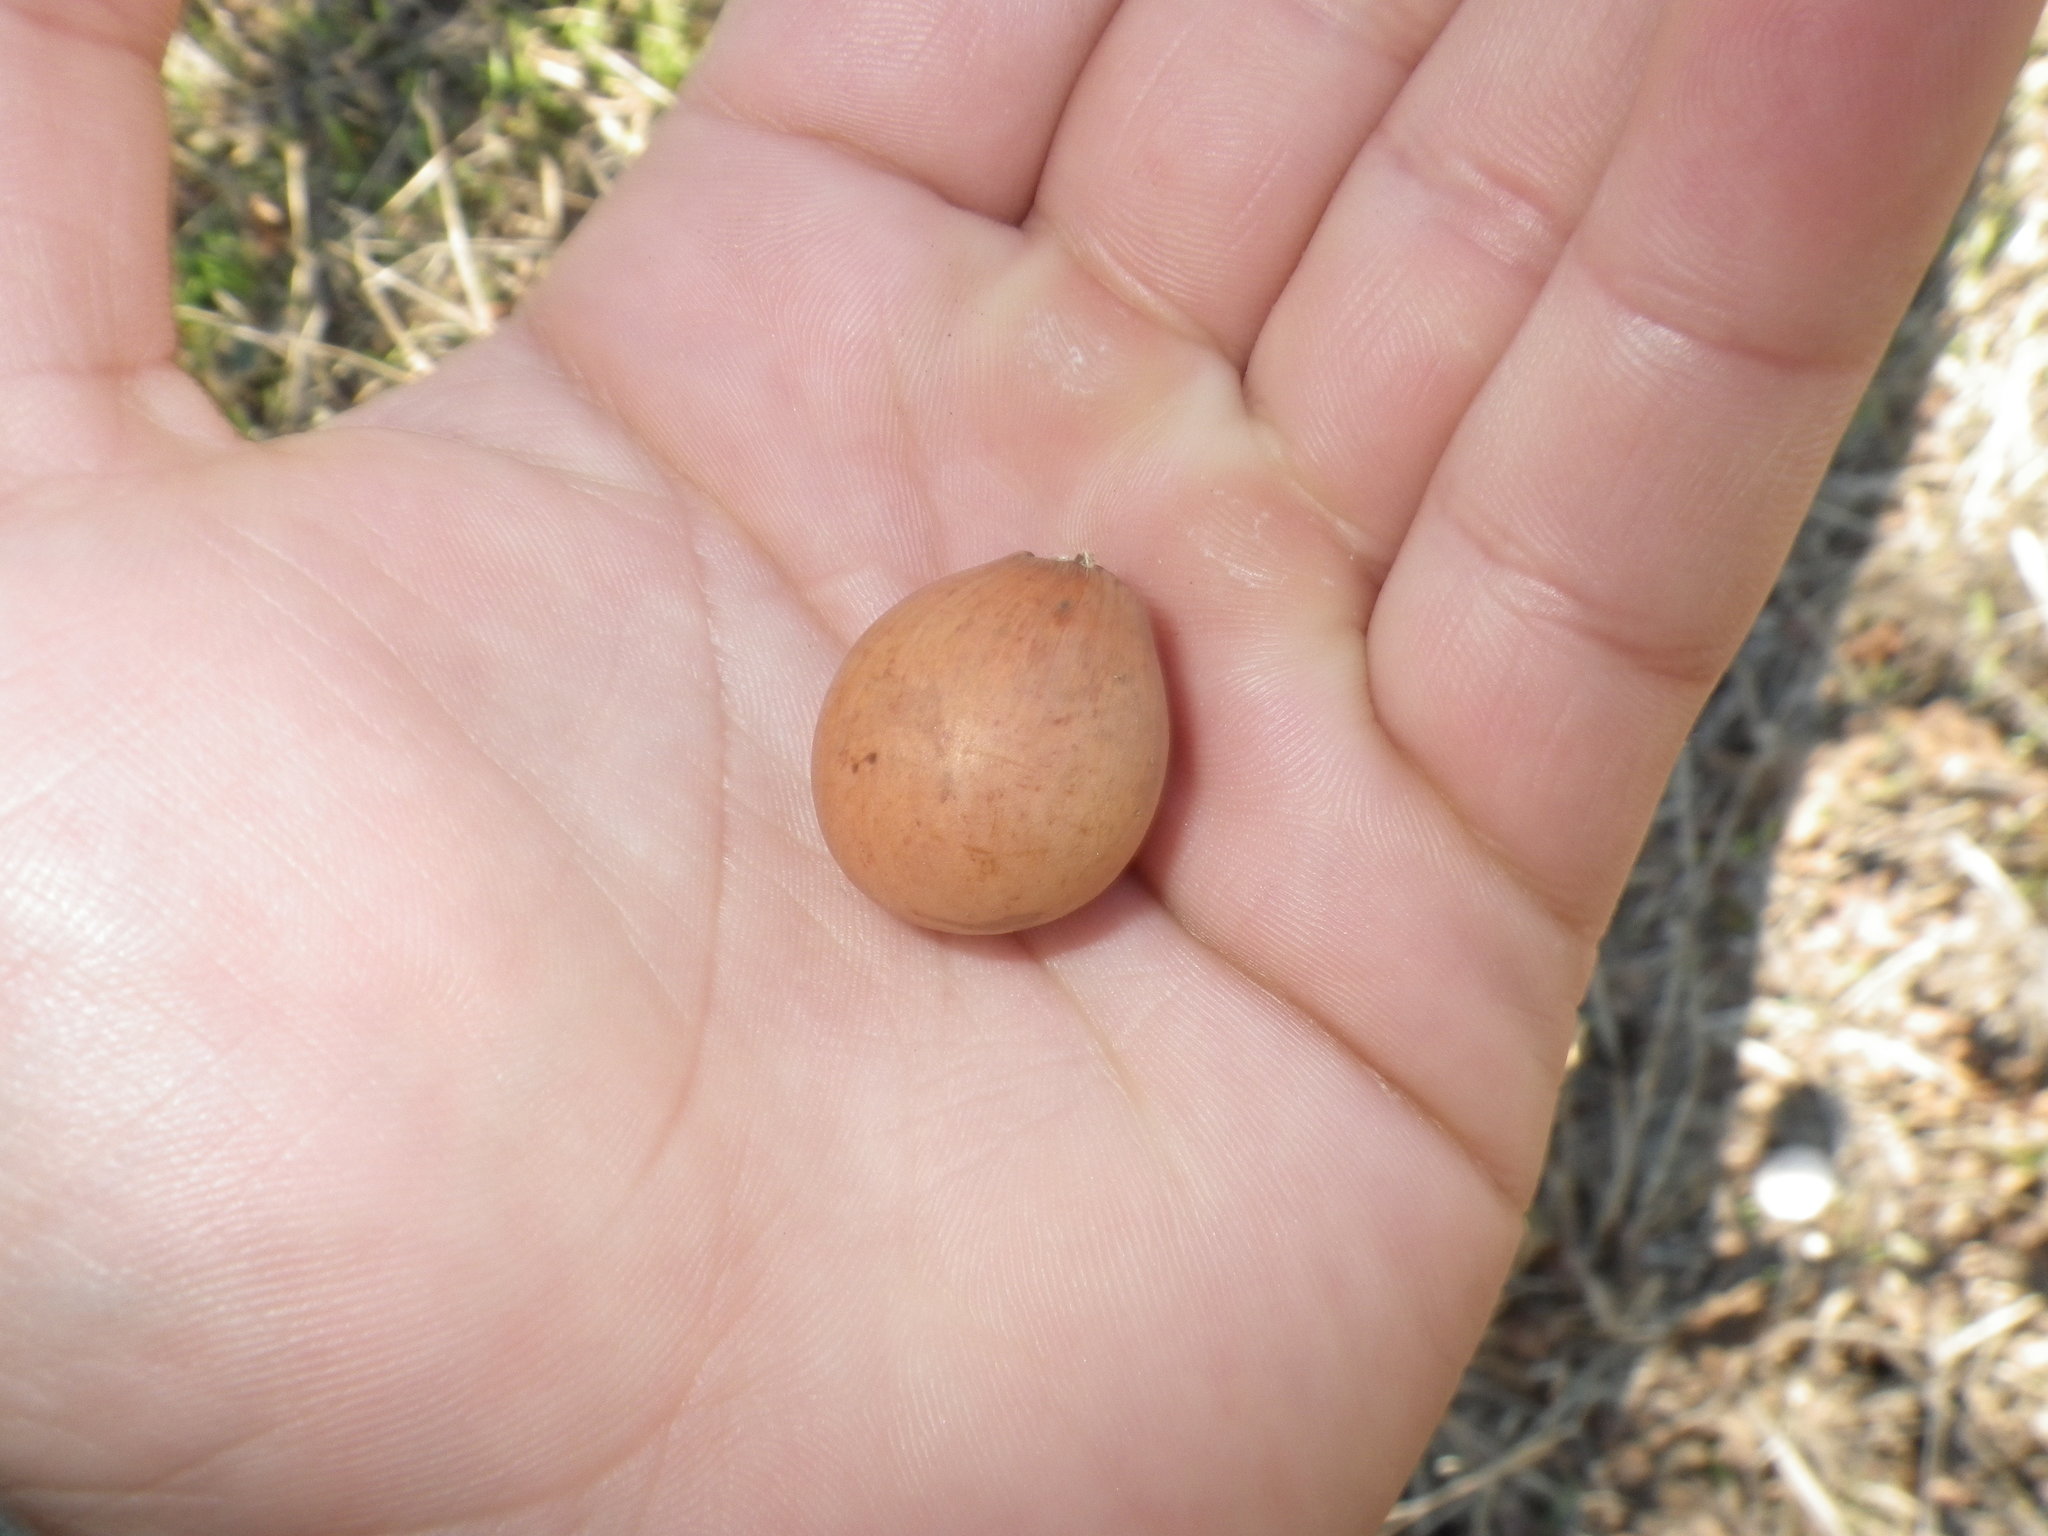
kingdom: Animalia
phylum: Arthropoda
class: Insecta
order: Hymenoptera
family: Cynipidae
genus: Andricus
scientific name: Andricus quercuscalifornicus
